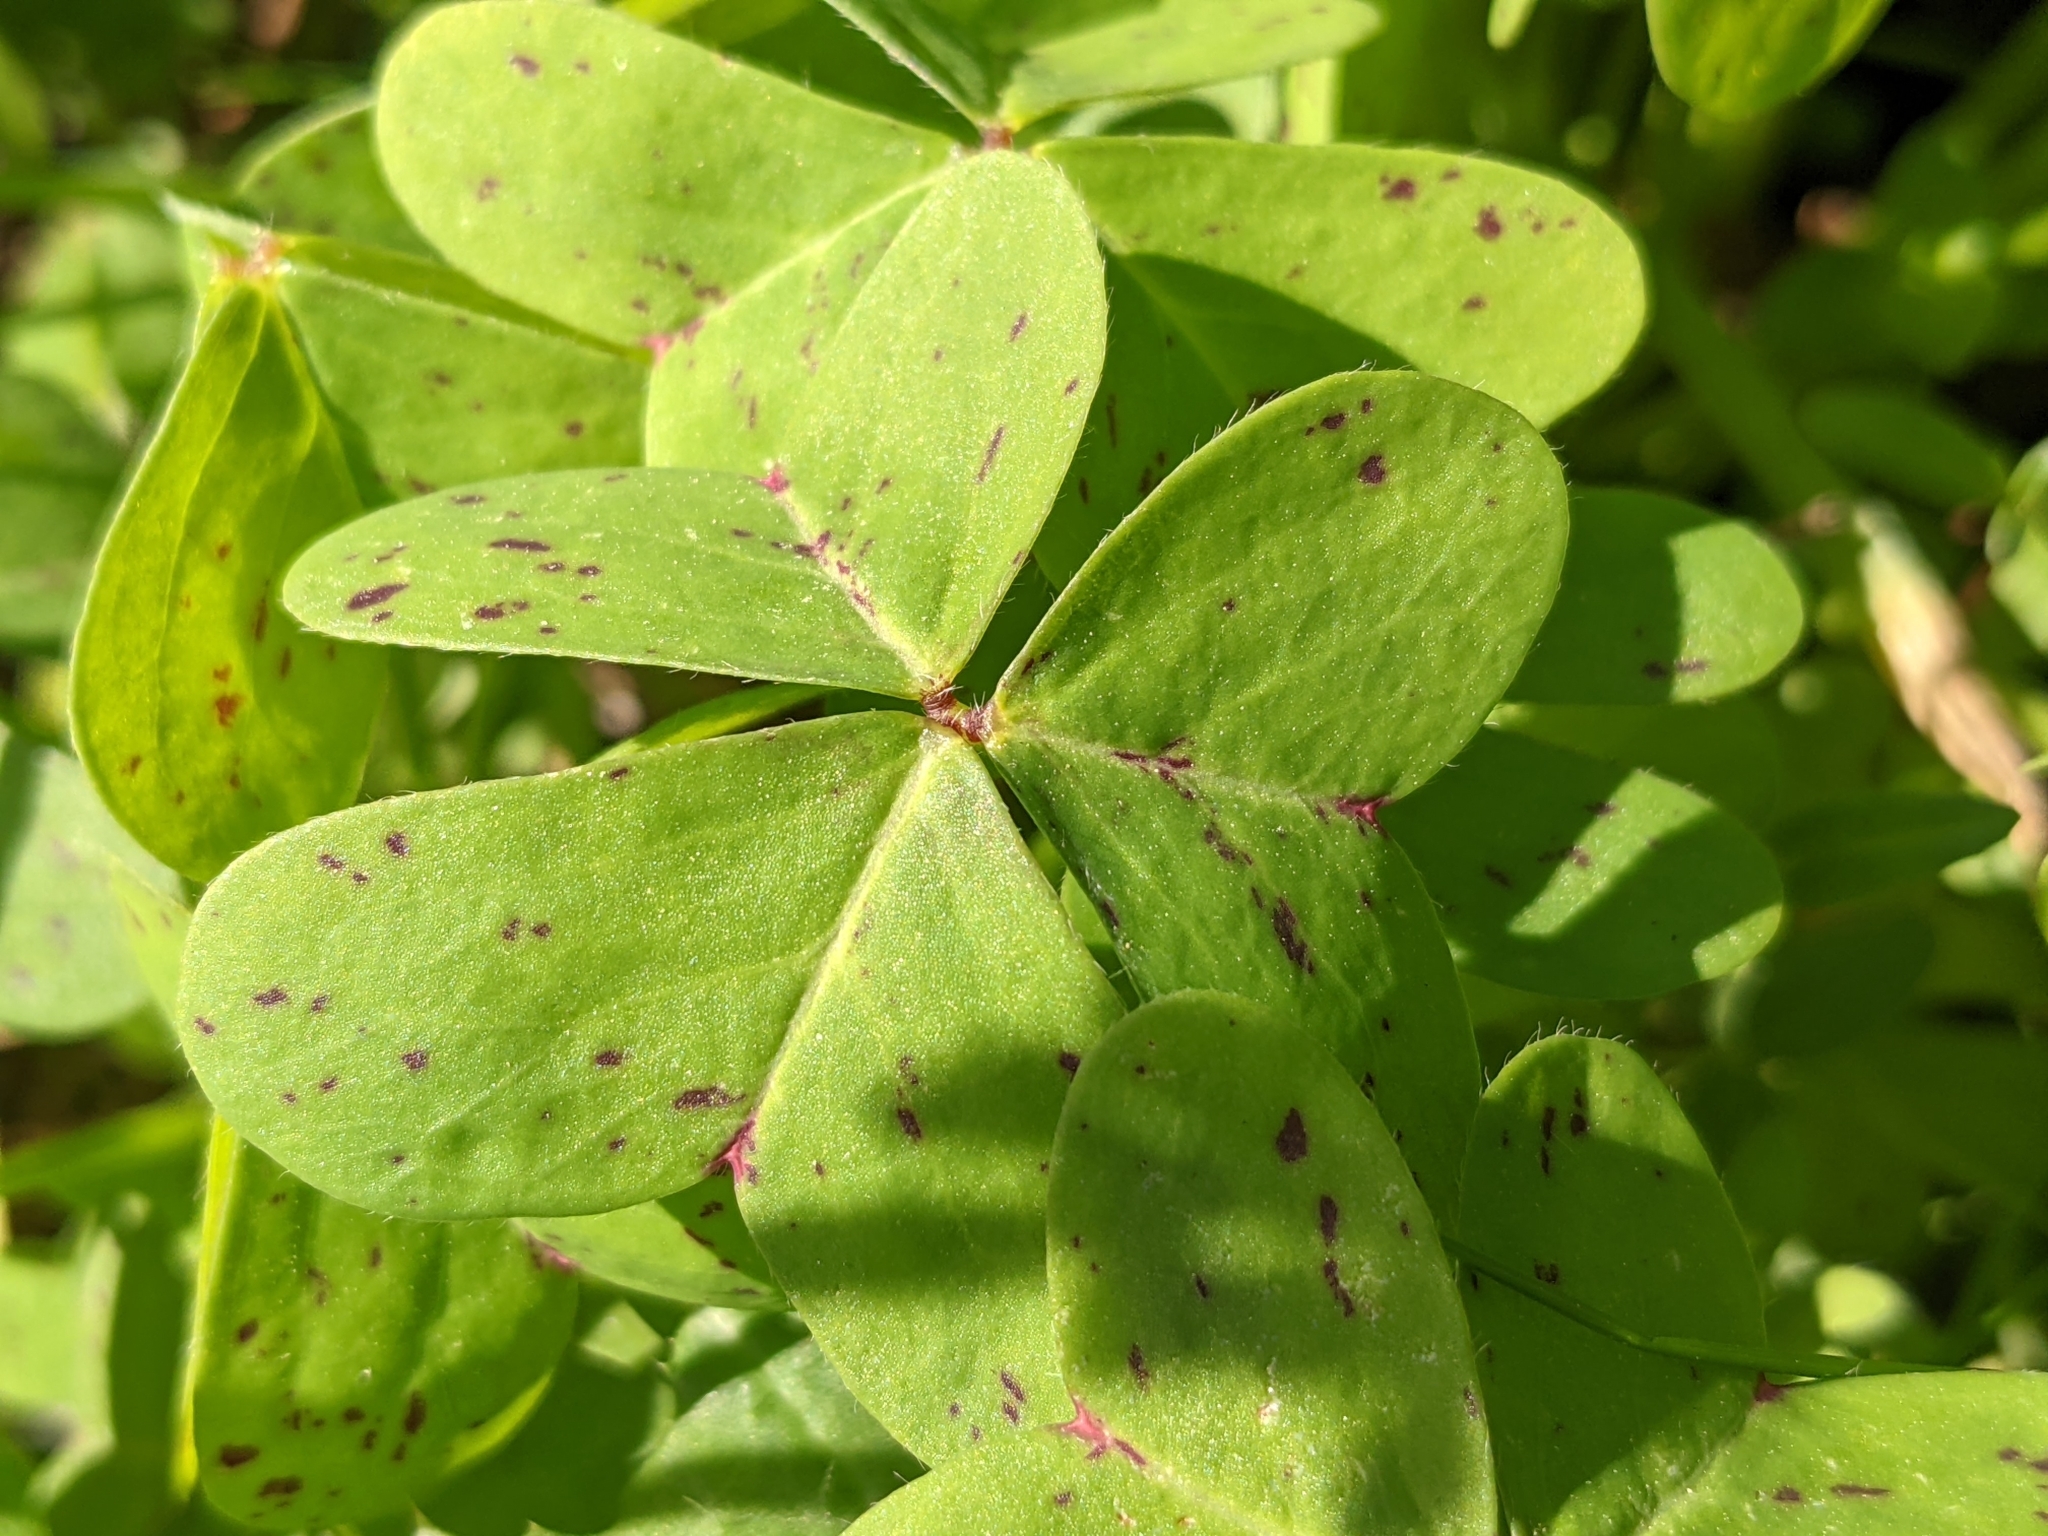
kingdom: Plantae
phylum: Tracheophyta
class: Magnoliopsida
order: Oxalidales
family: Oxalidaceae
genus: Oxalis
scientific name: Oxalis pes-caprae
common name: Bermuda-buttercup
